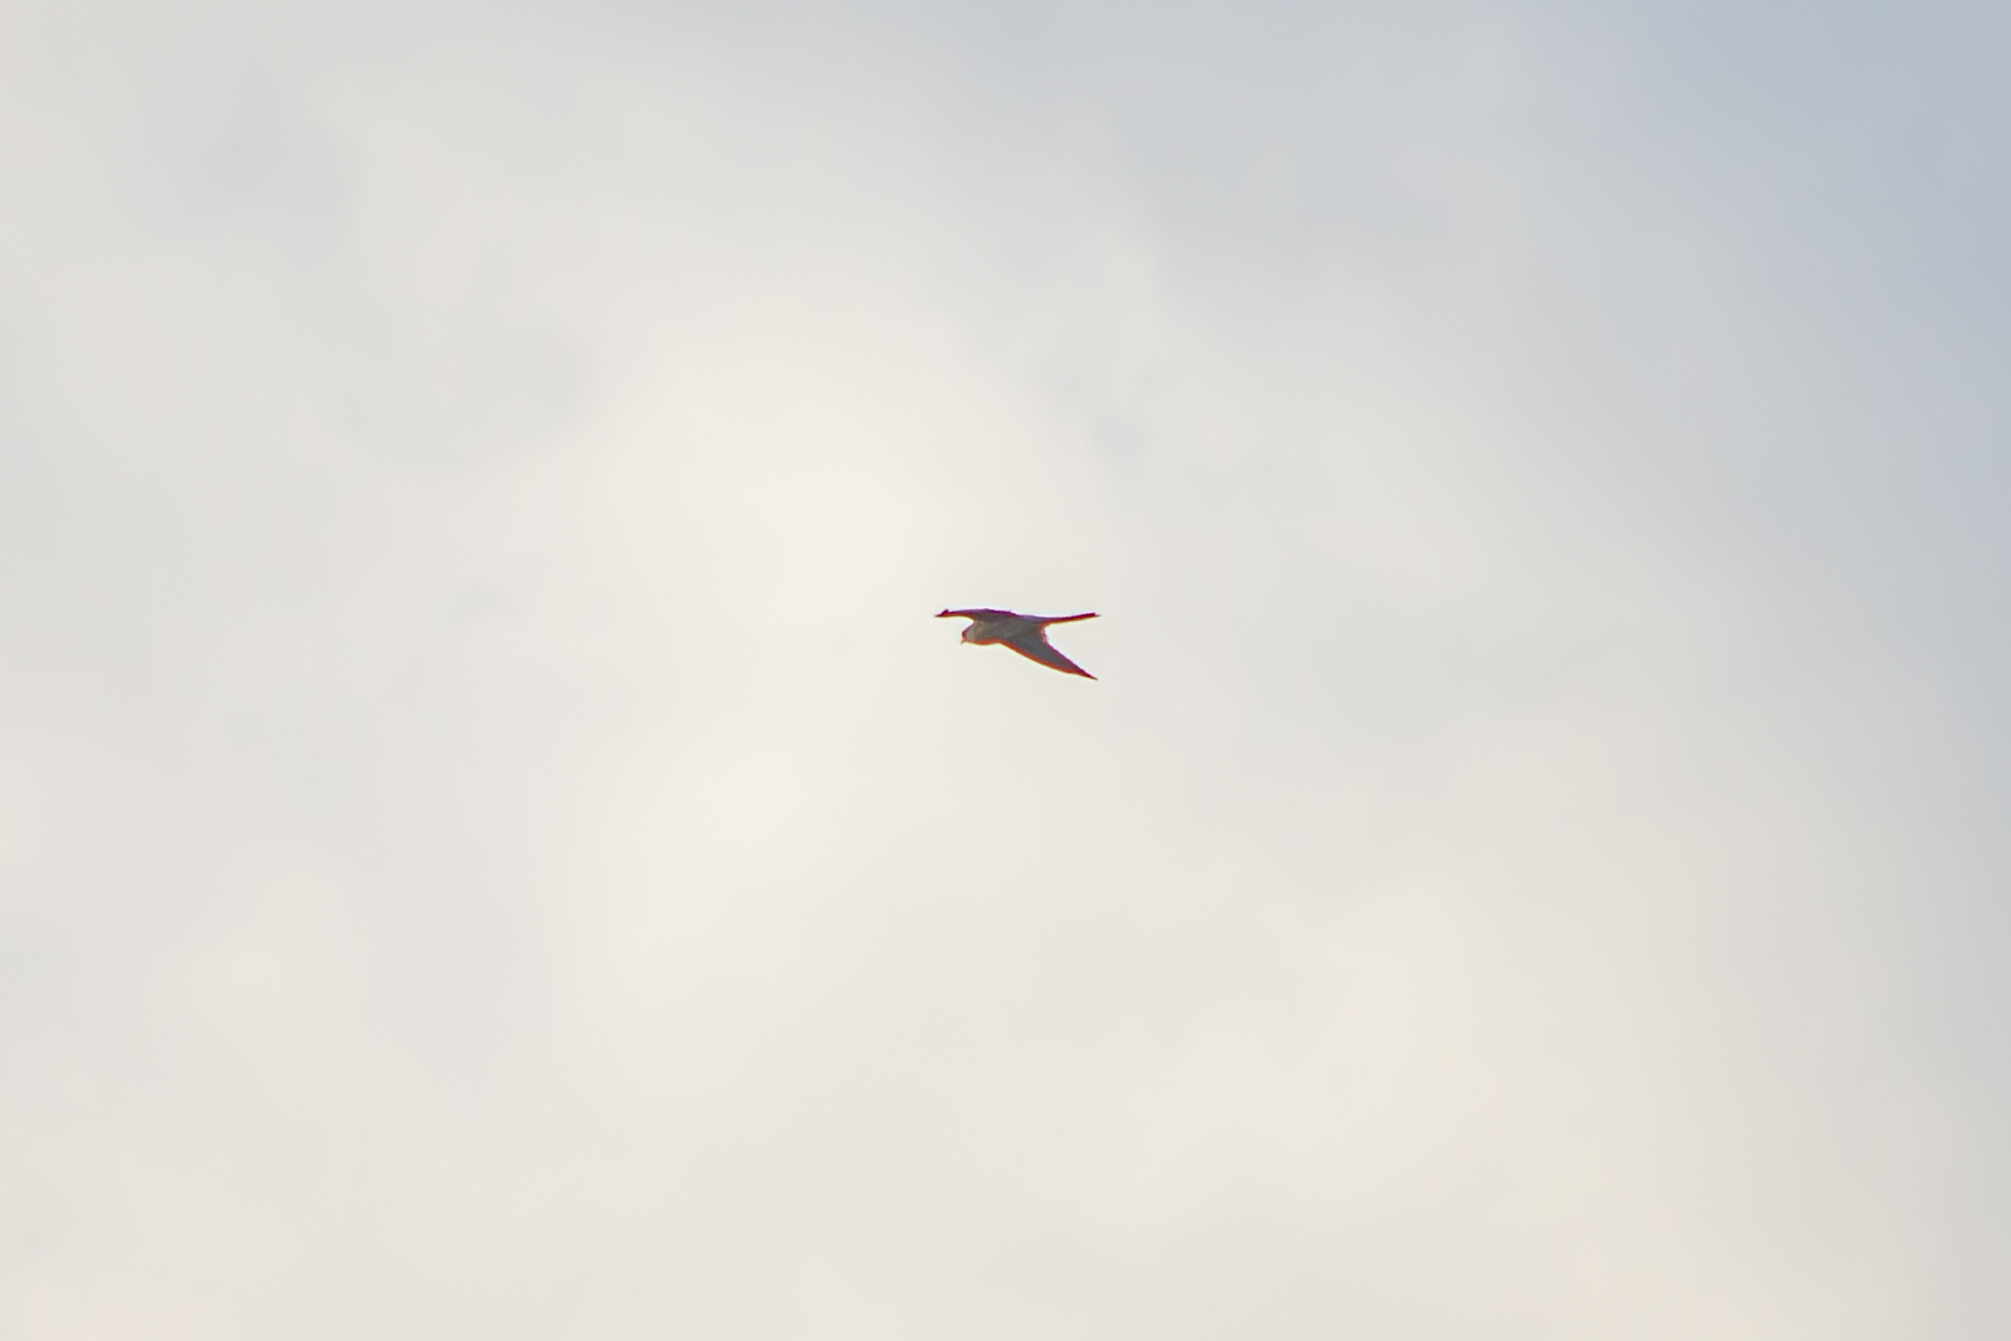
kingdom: Animalia
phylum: Chordata
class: Aves
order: Falconiformes
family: Falconidae
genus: Falco
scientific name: Falco tinnunculus
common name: Common kestrel
